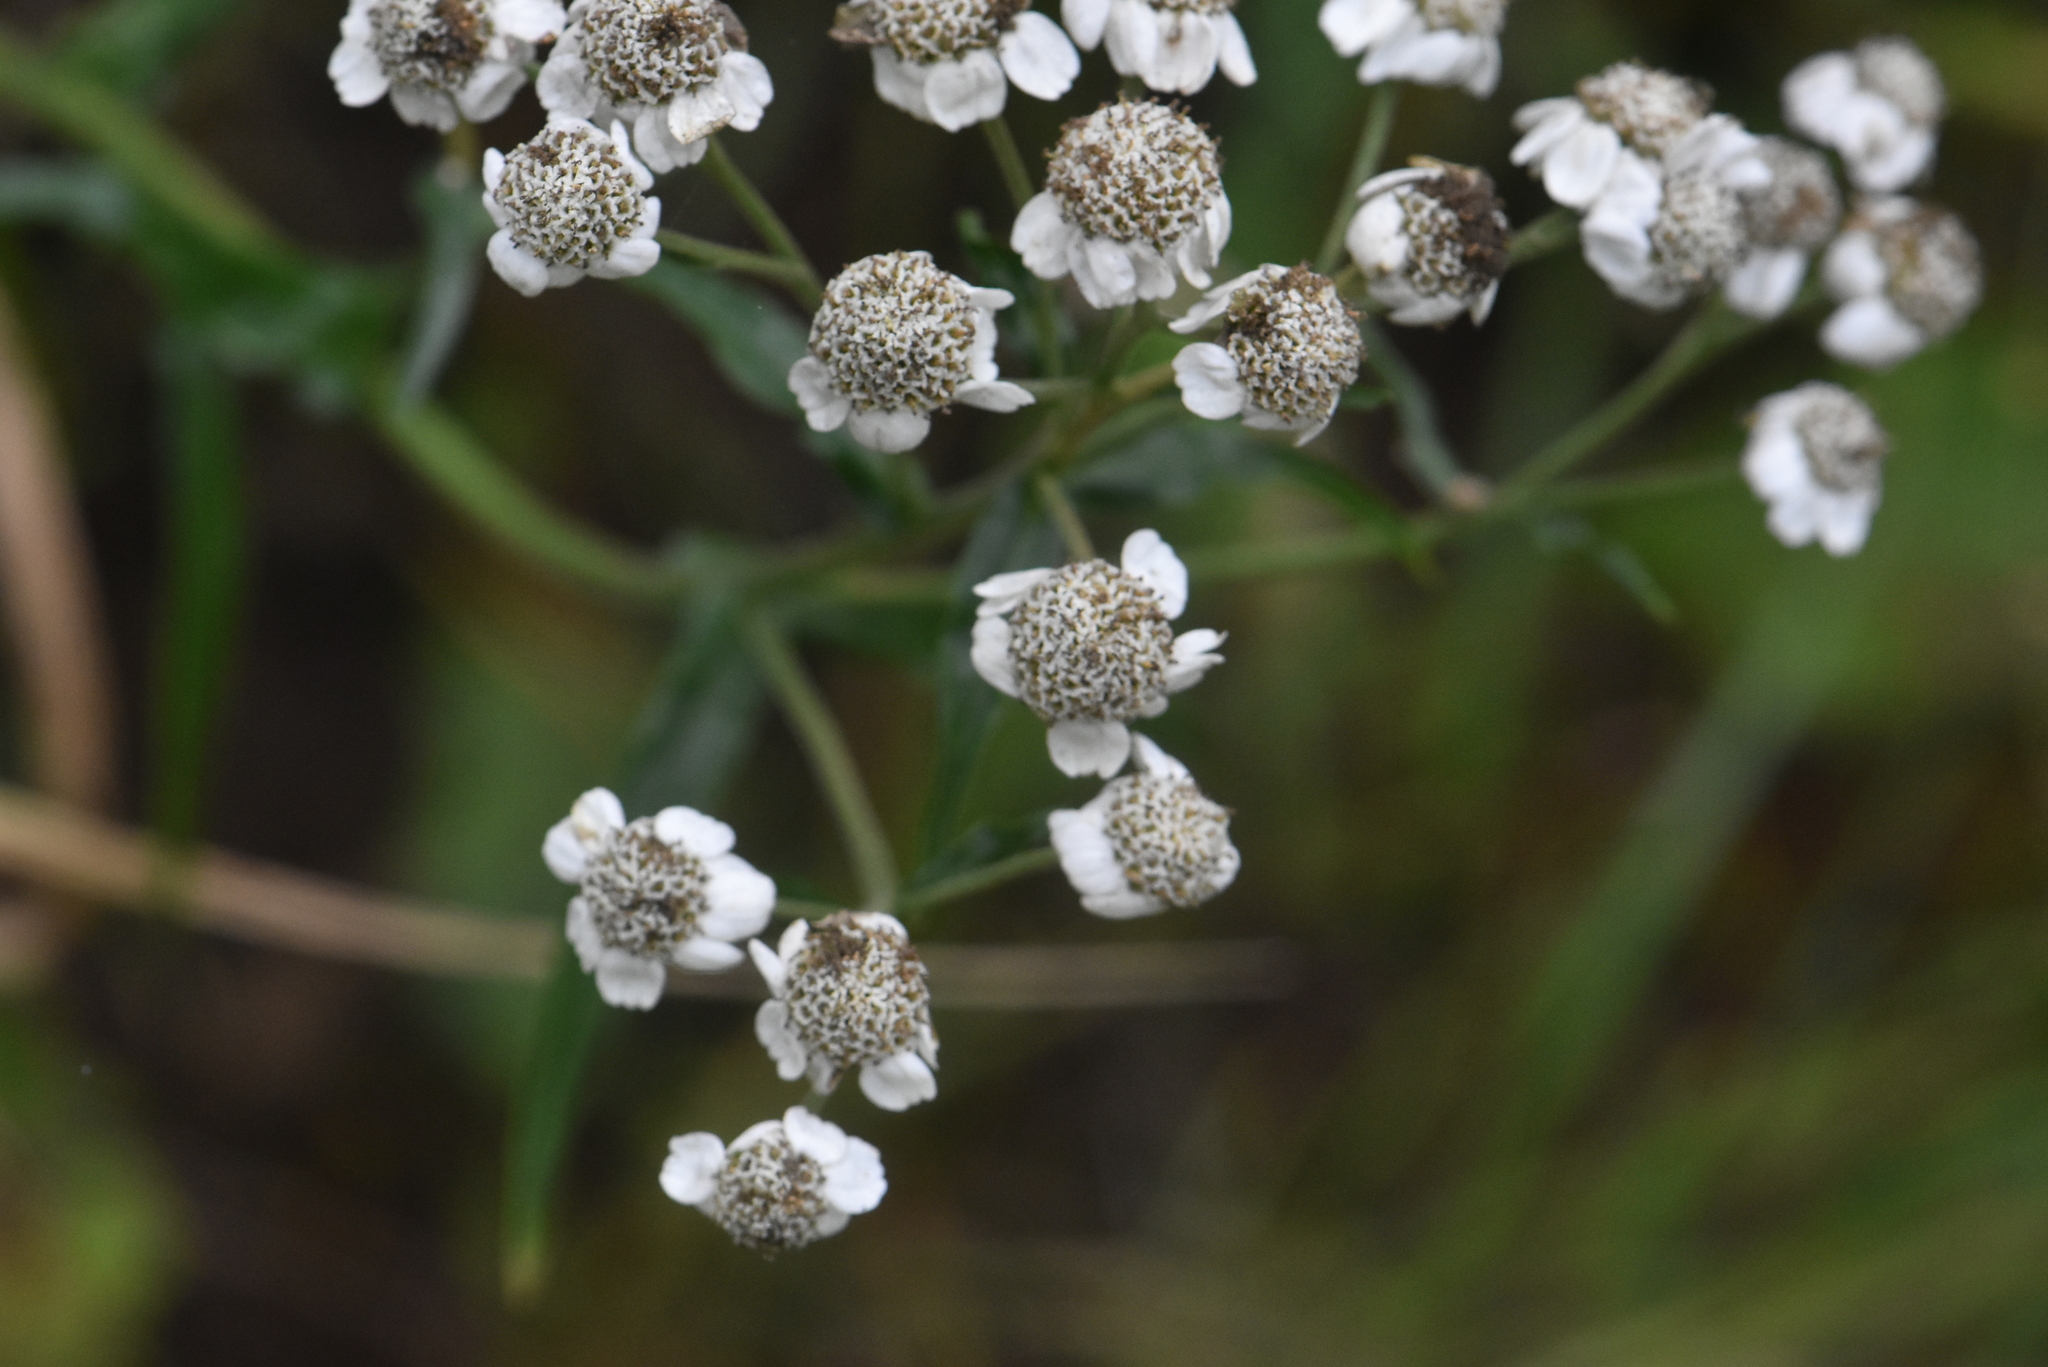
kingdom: Plantae
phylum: Tracheophyta
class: Magnoliopsida
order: Asterales
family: Asteraceae
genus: Achillea
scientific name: Achillea ptarmica
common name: Sneezeweed
